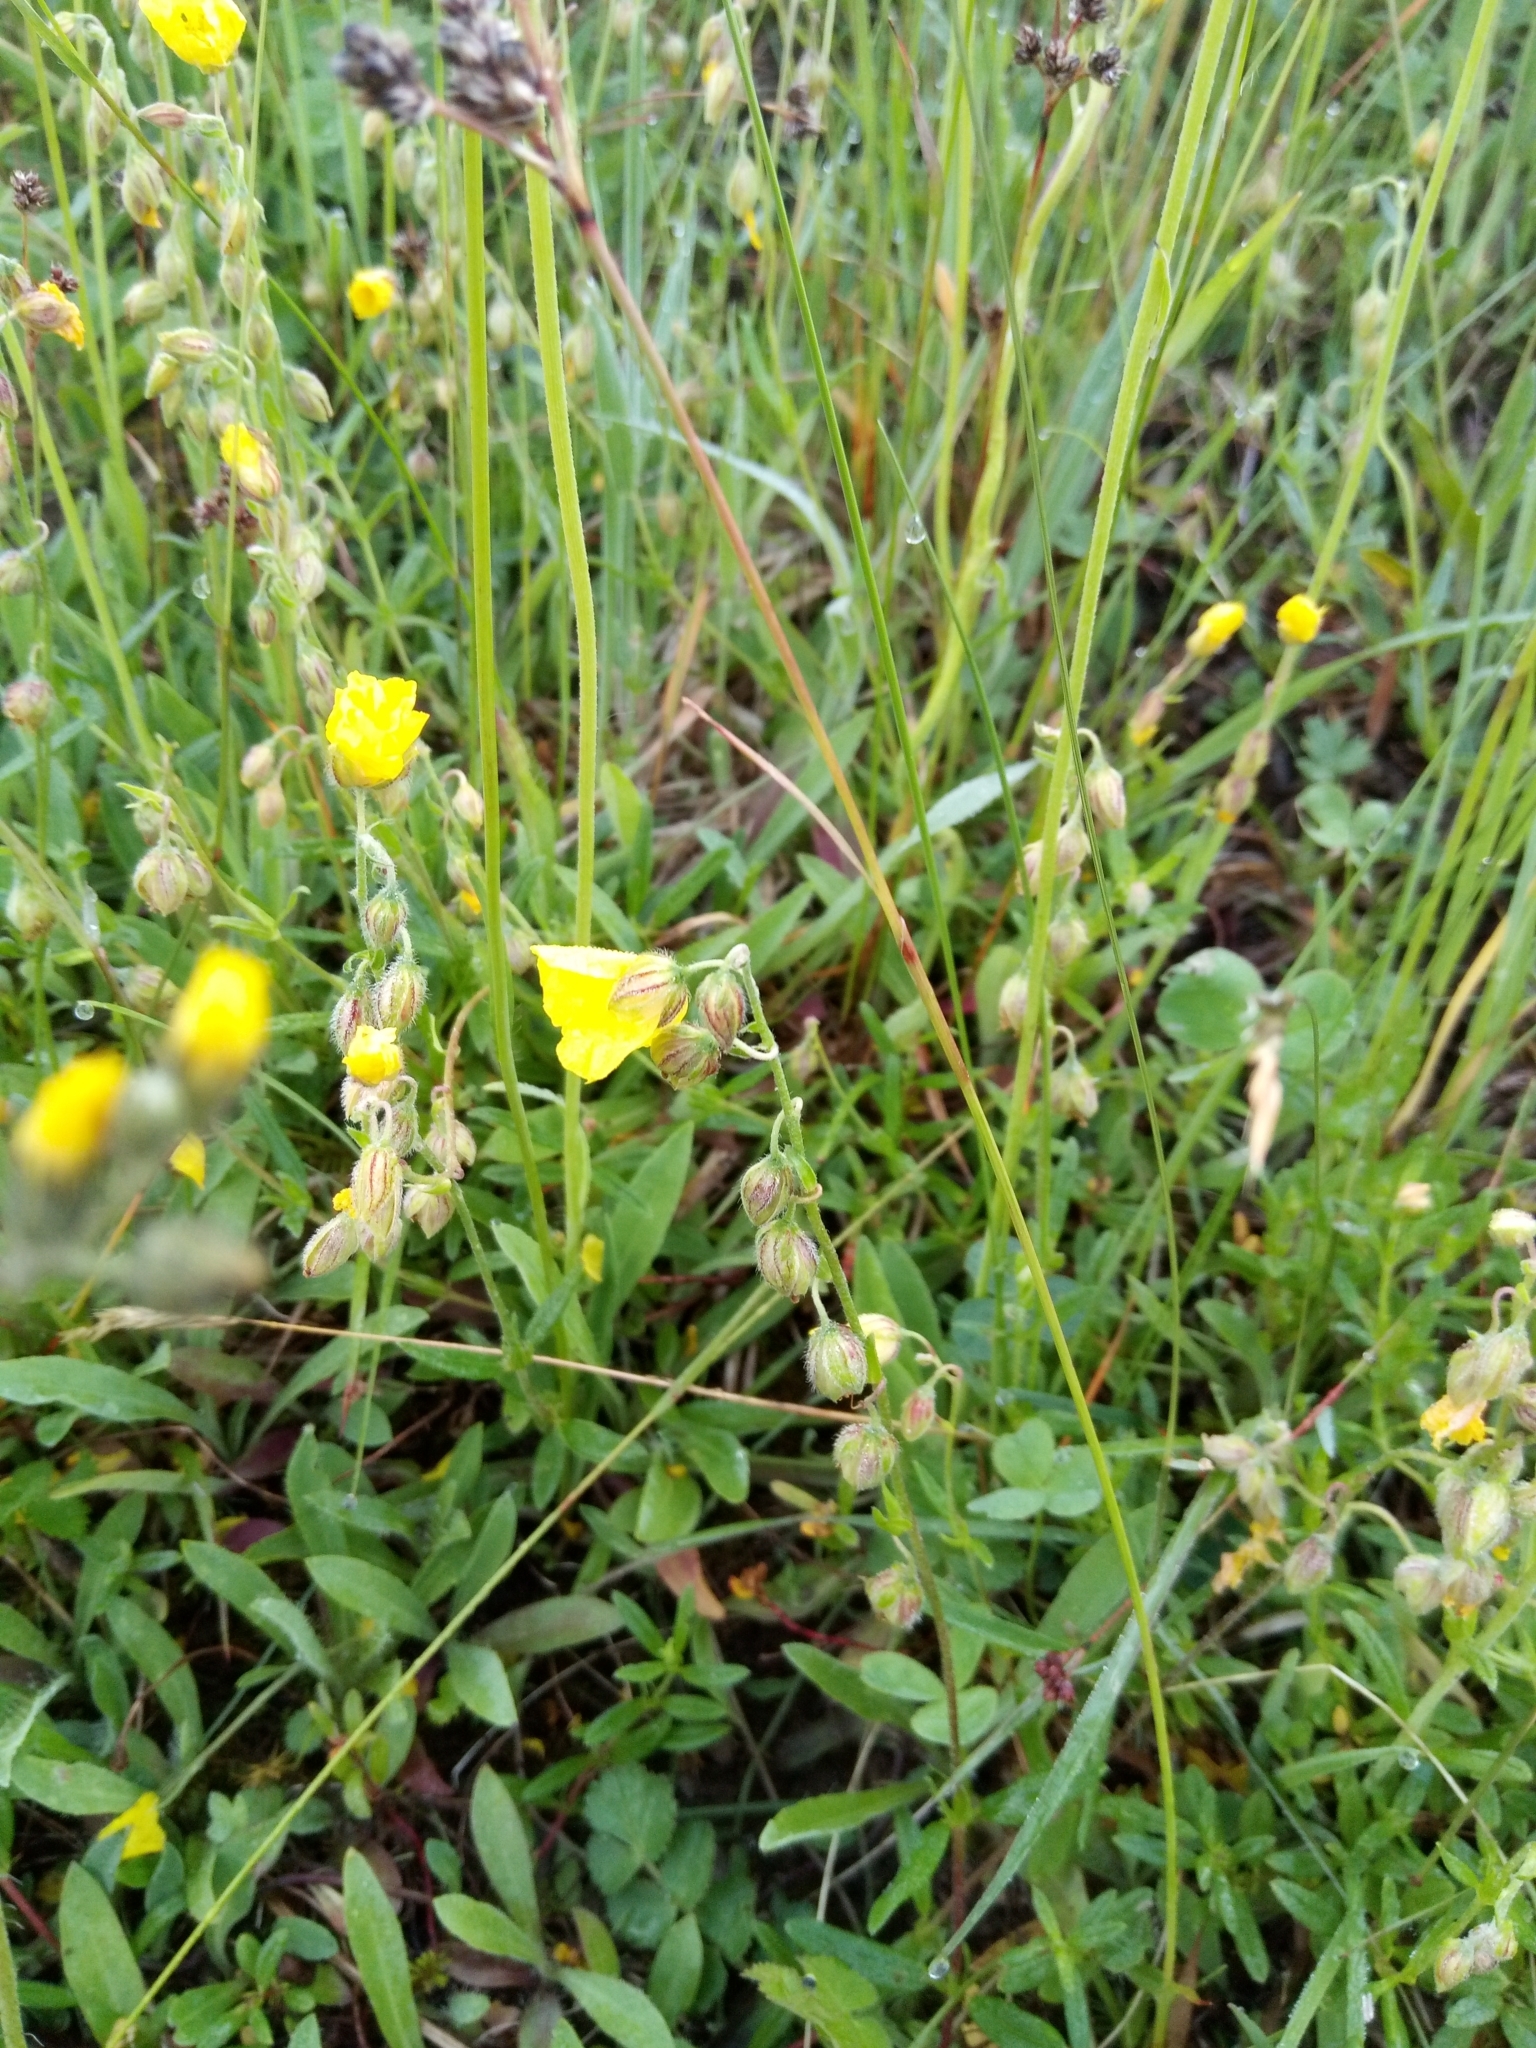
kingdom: Plantae
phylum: Tracheophyta
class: Magnoliopsida
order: Malvales
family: Cistaceae
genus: Helianthemum
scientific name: Helianthemum nummularium
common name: Common rock-rose
